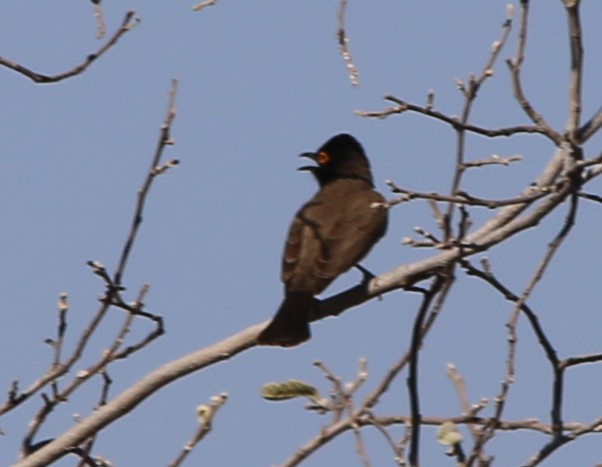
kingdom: Animalia
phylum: Chordata
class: Aves
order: Passeriformes
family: Pycnonotidae
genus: Pycnonotus
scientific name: Pycnonotus nigricans
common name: African red-eyed bulbul
